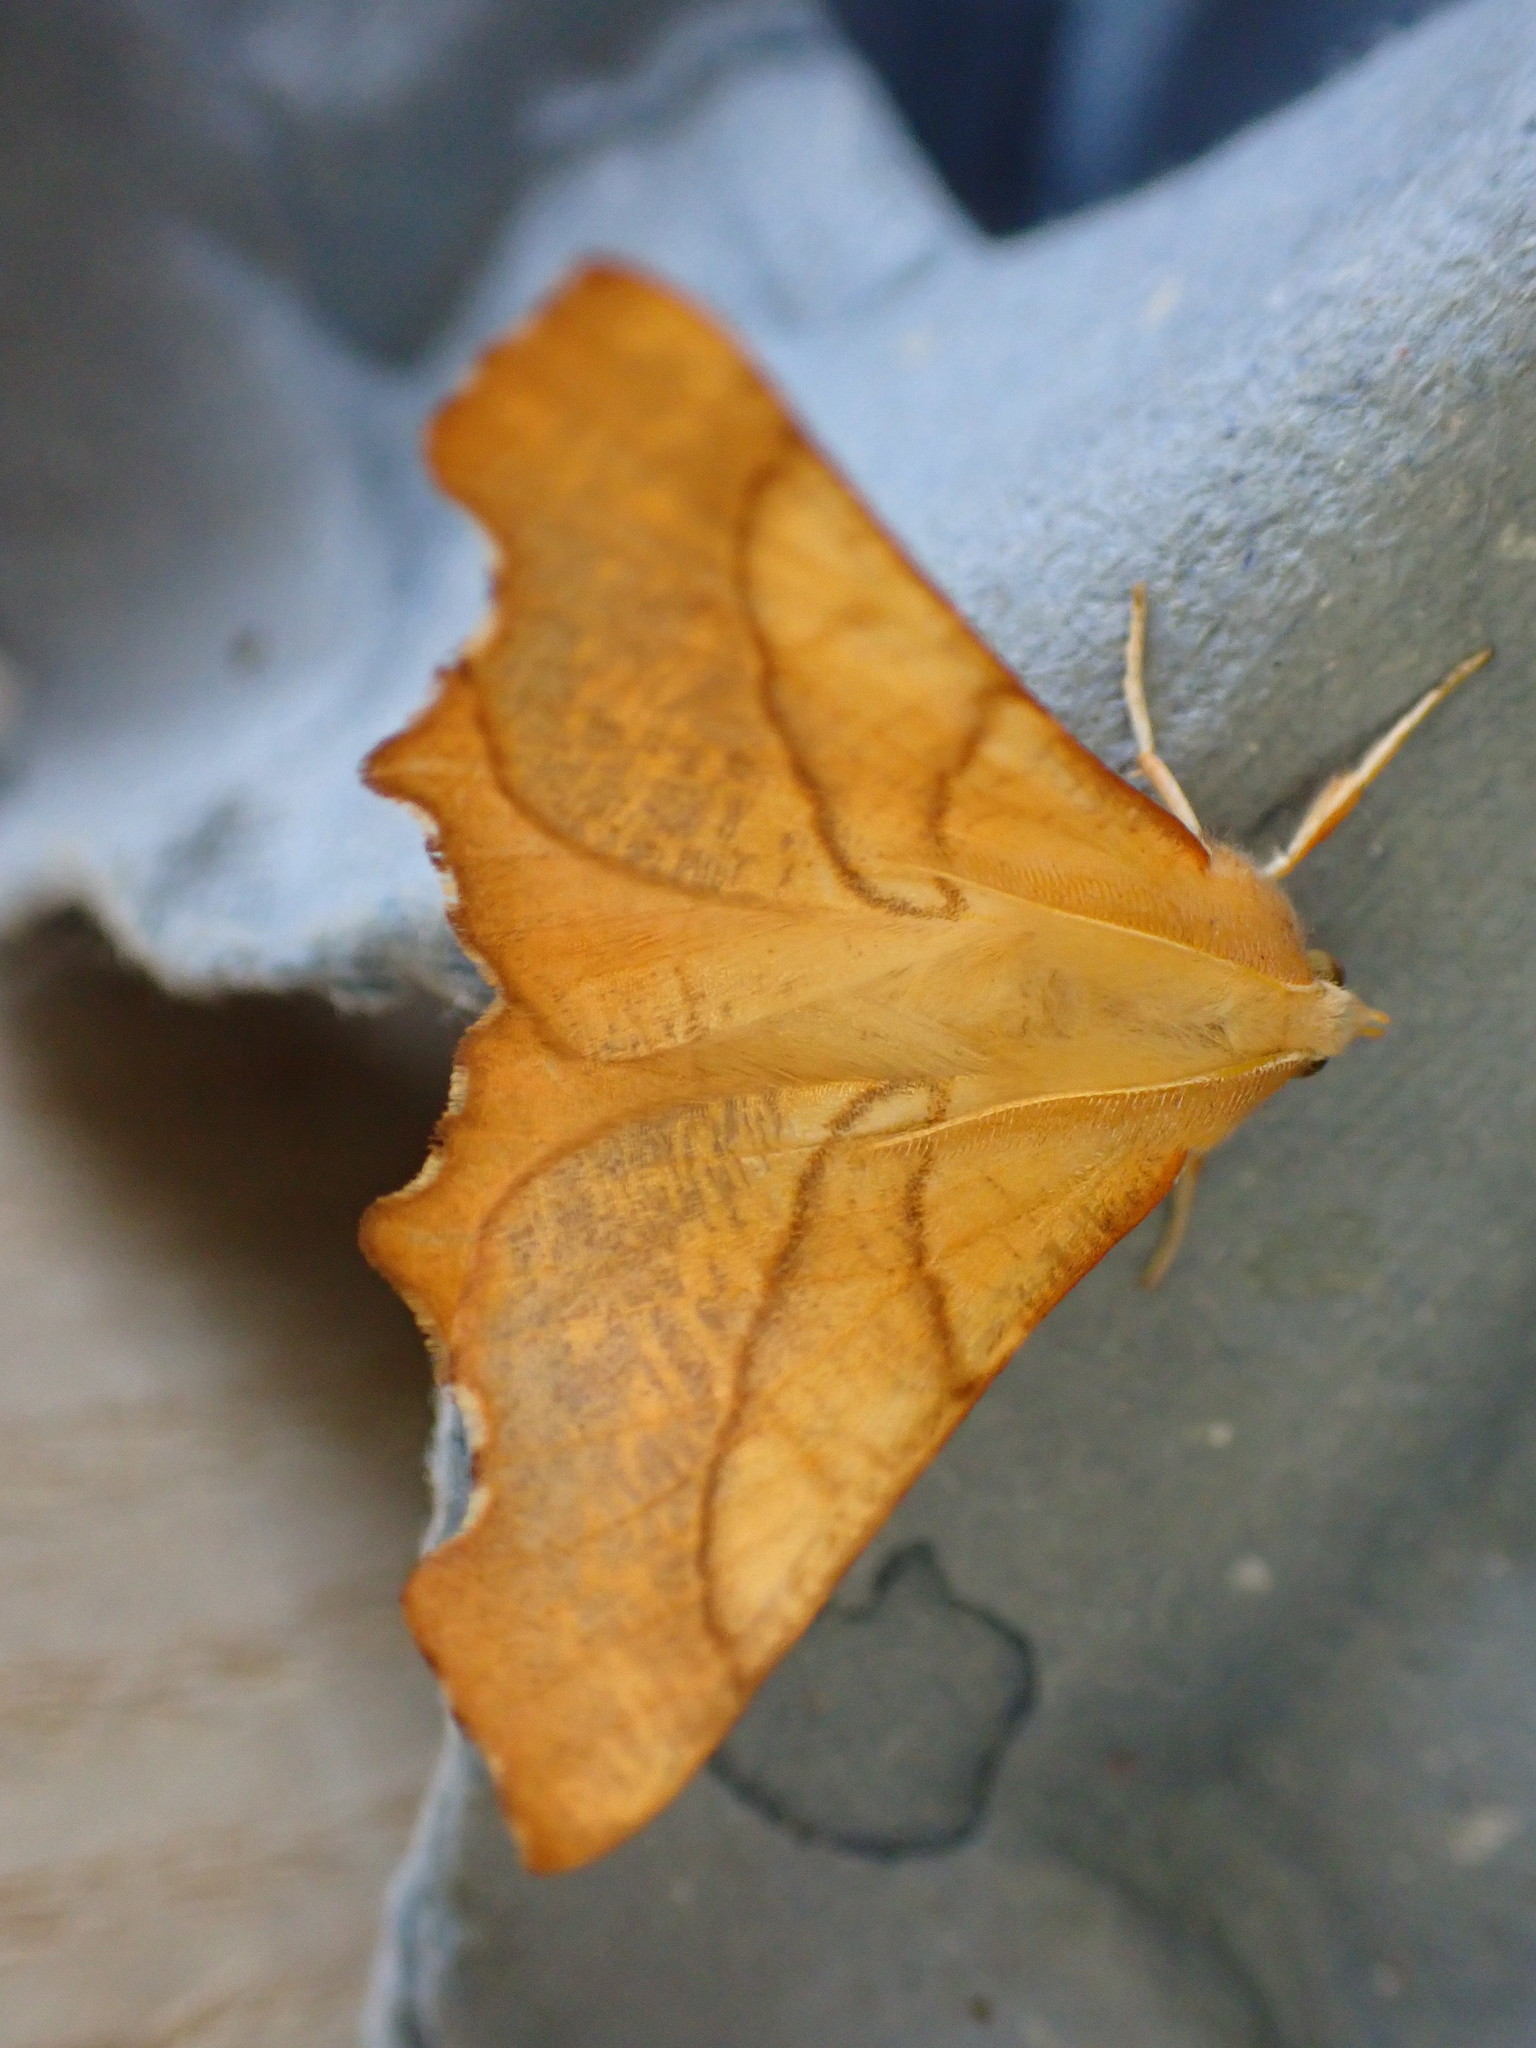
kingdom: Animalia
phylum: Arthropoda
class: Insecta
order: Lepidoptera
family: Geometridae
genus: Ennomos
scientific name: Ennomos fuscantaria
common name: Dusky thorn
